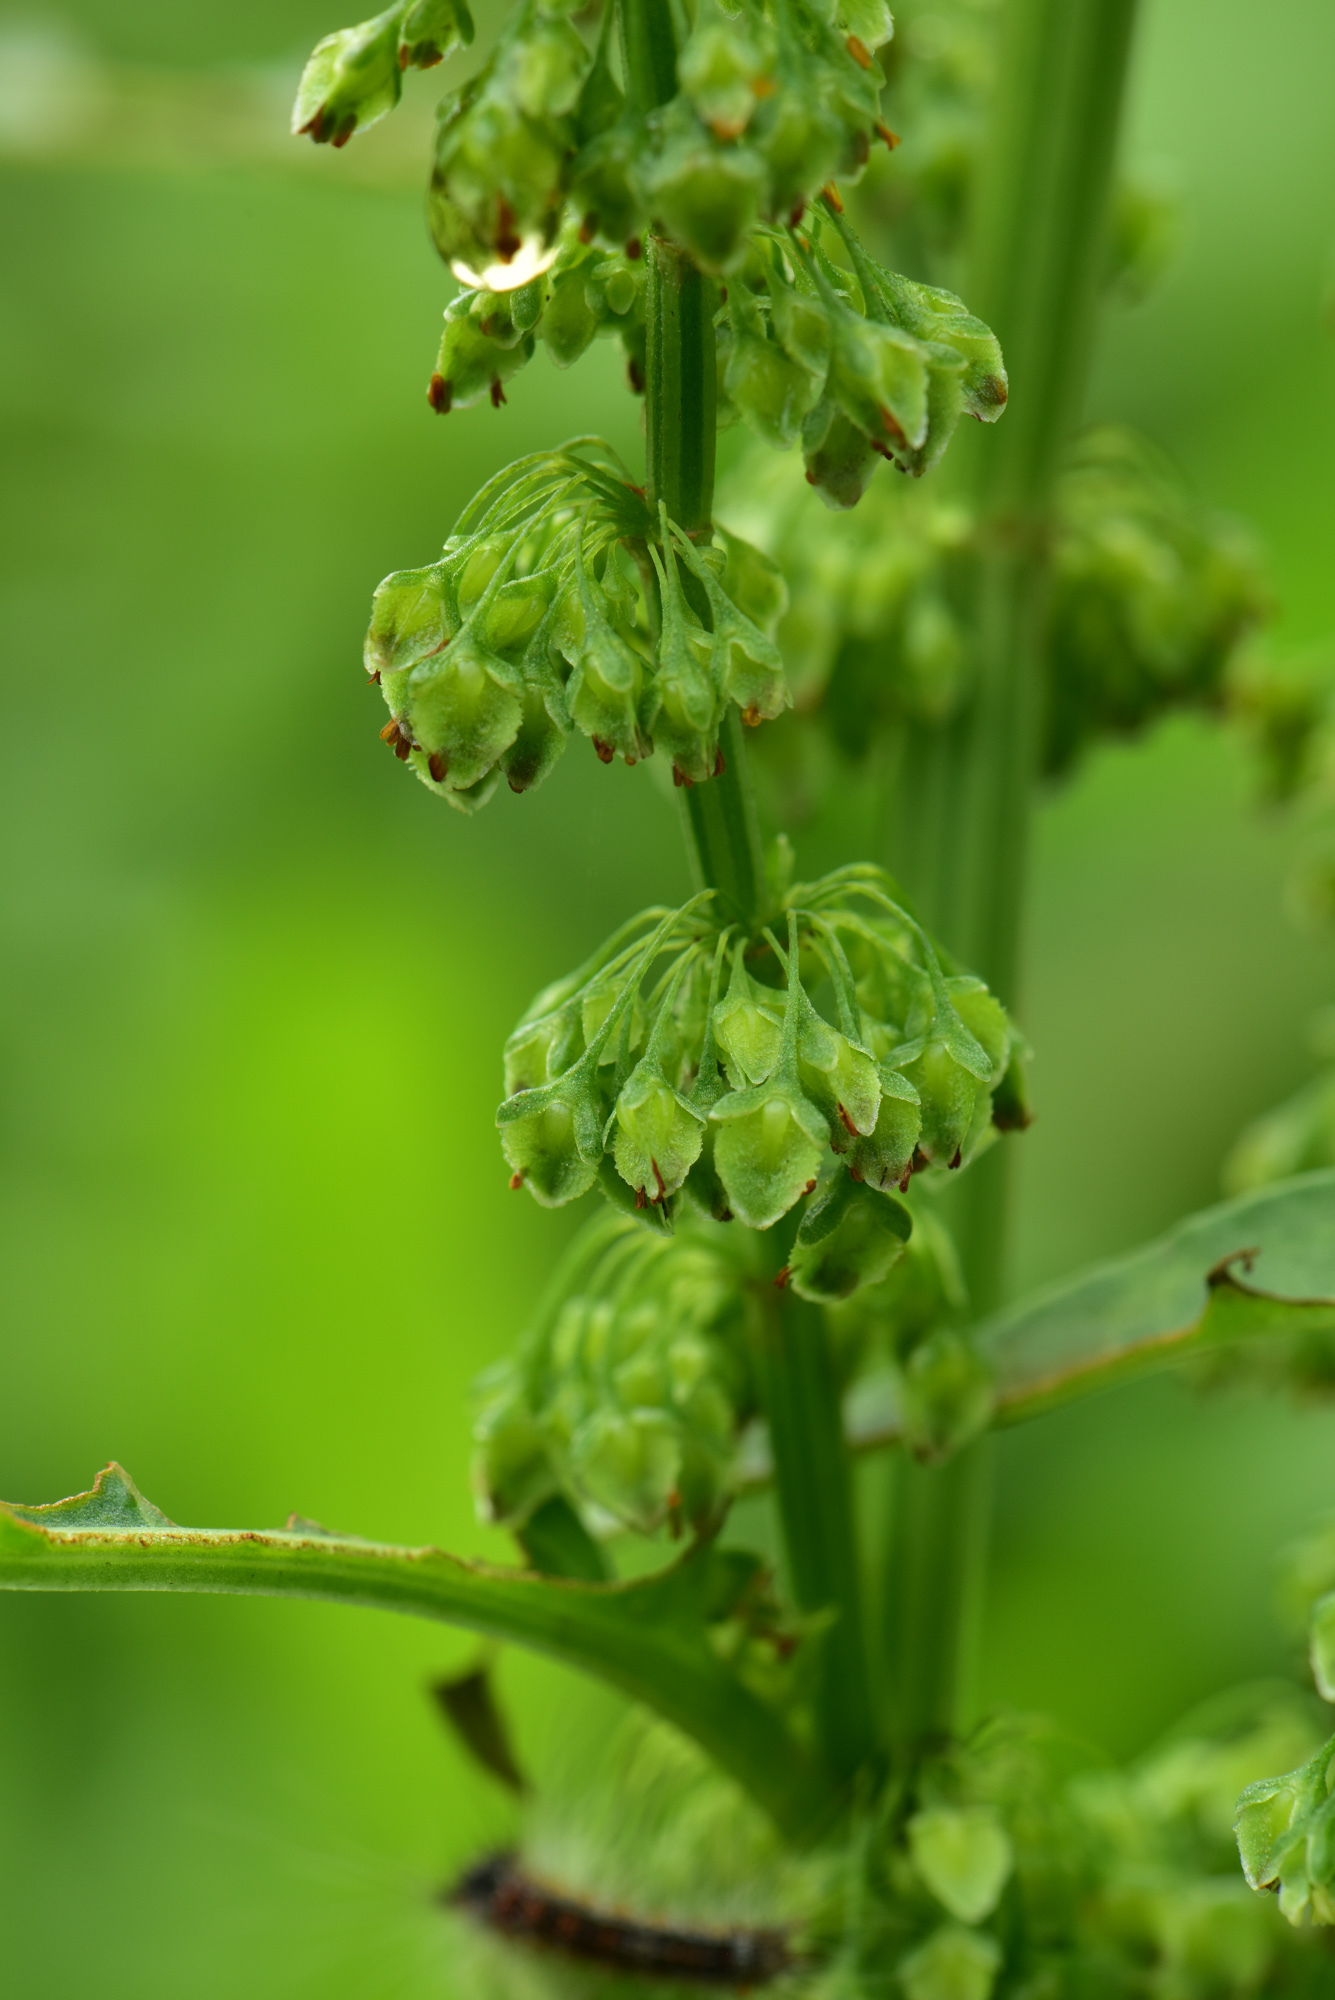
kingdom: Plantae
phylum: Tracheophyta
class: Magnoliopsida
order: Caryophyllales
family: Polygonaceae
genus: Rumex
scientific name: Rumex japonicus
